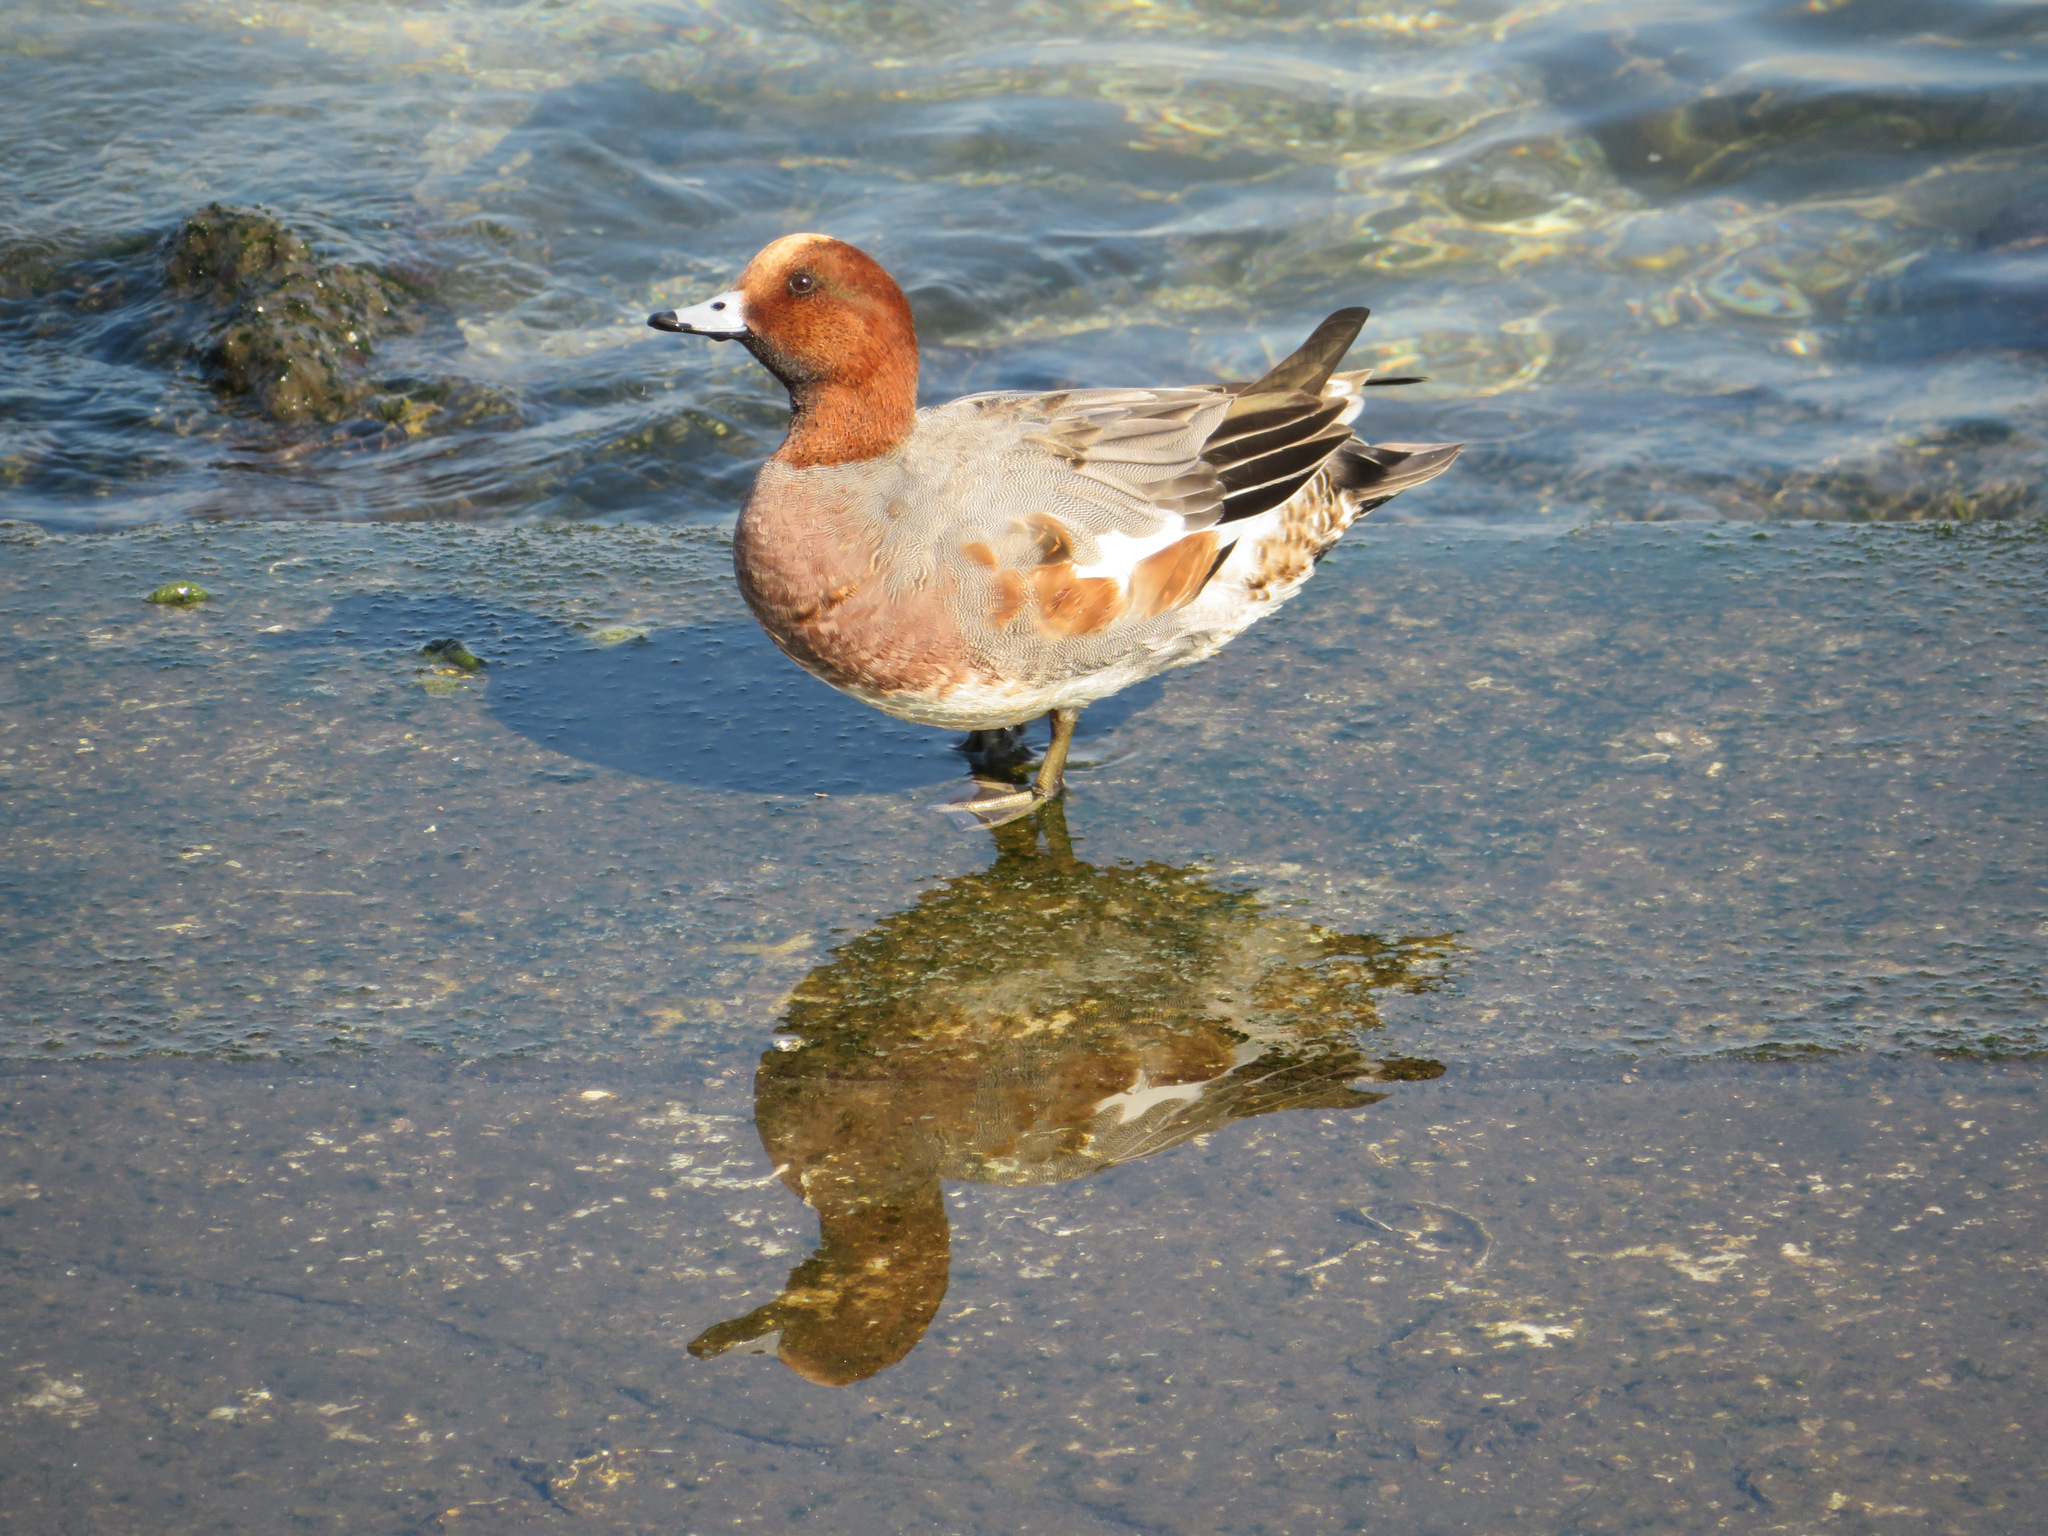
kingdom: Animalia
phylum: Chordata
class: Aves
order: Anseriformes
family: Anatidae
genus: Mareca
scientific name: Mareca penelope
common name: Eurasian wigeon
